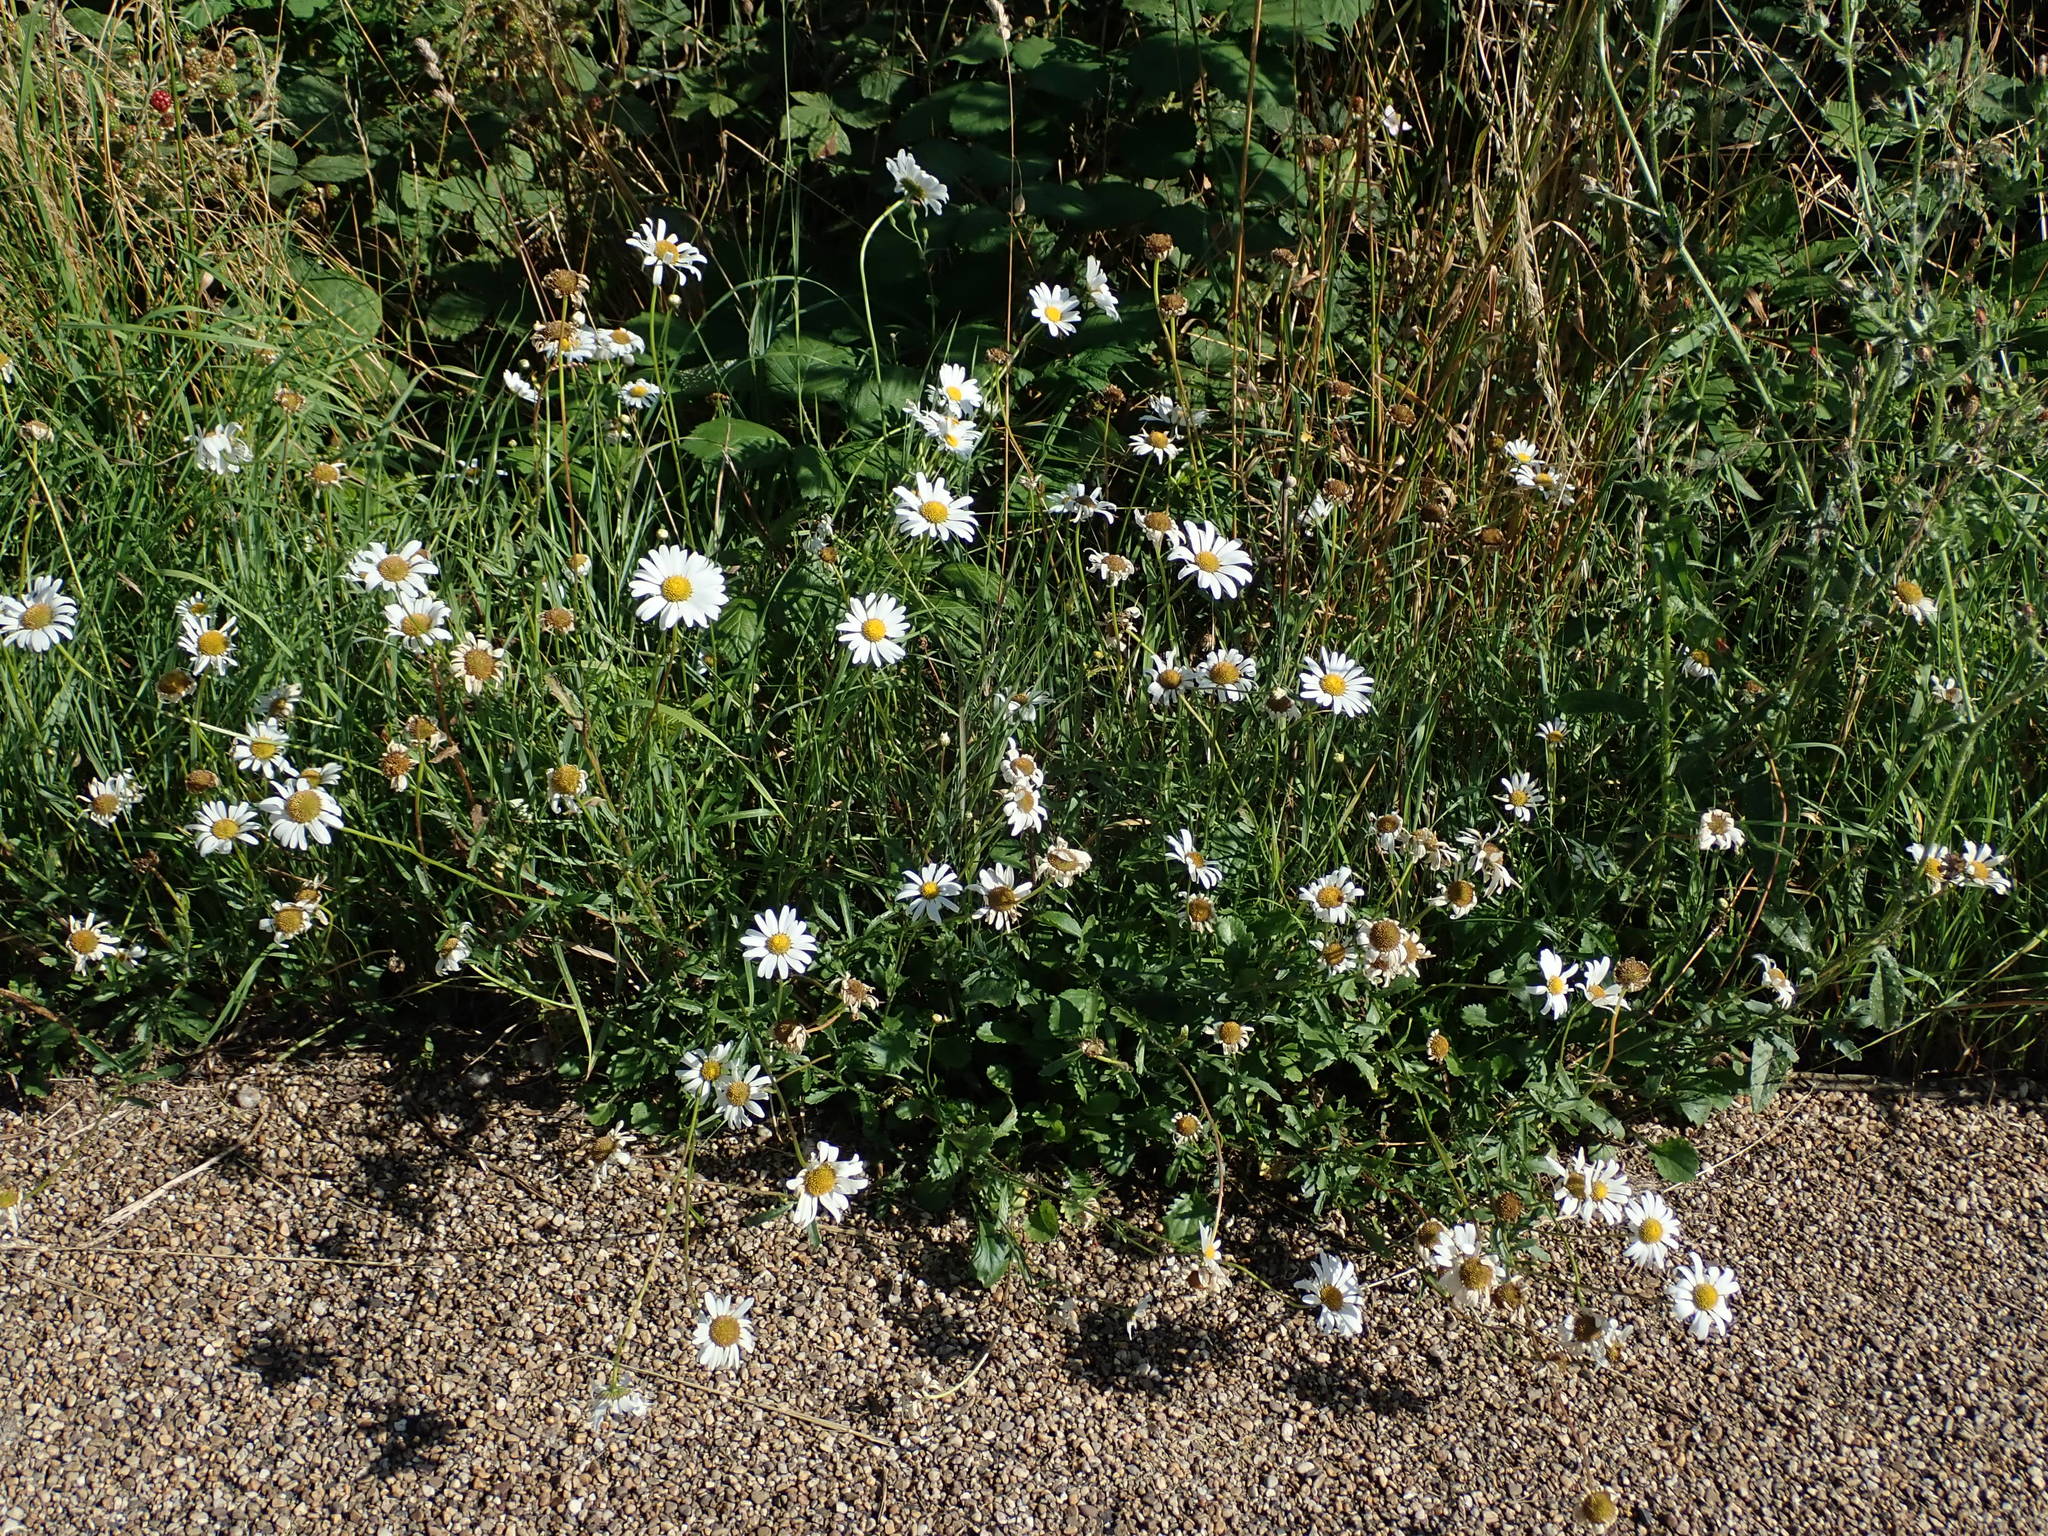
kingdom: Plantae
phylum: Tracheophyta
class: Magnoliopsida
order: Asterales
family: Asteraceae
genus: Leucanthemum
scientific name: Leucanthemum vulgare
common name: Oxeye daisy
